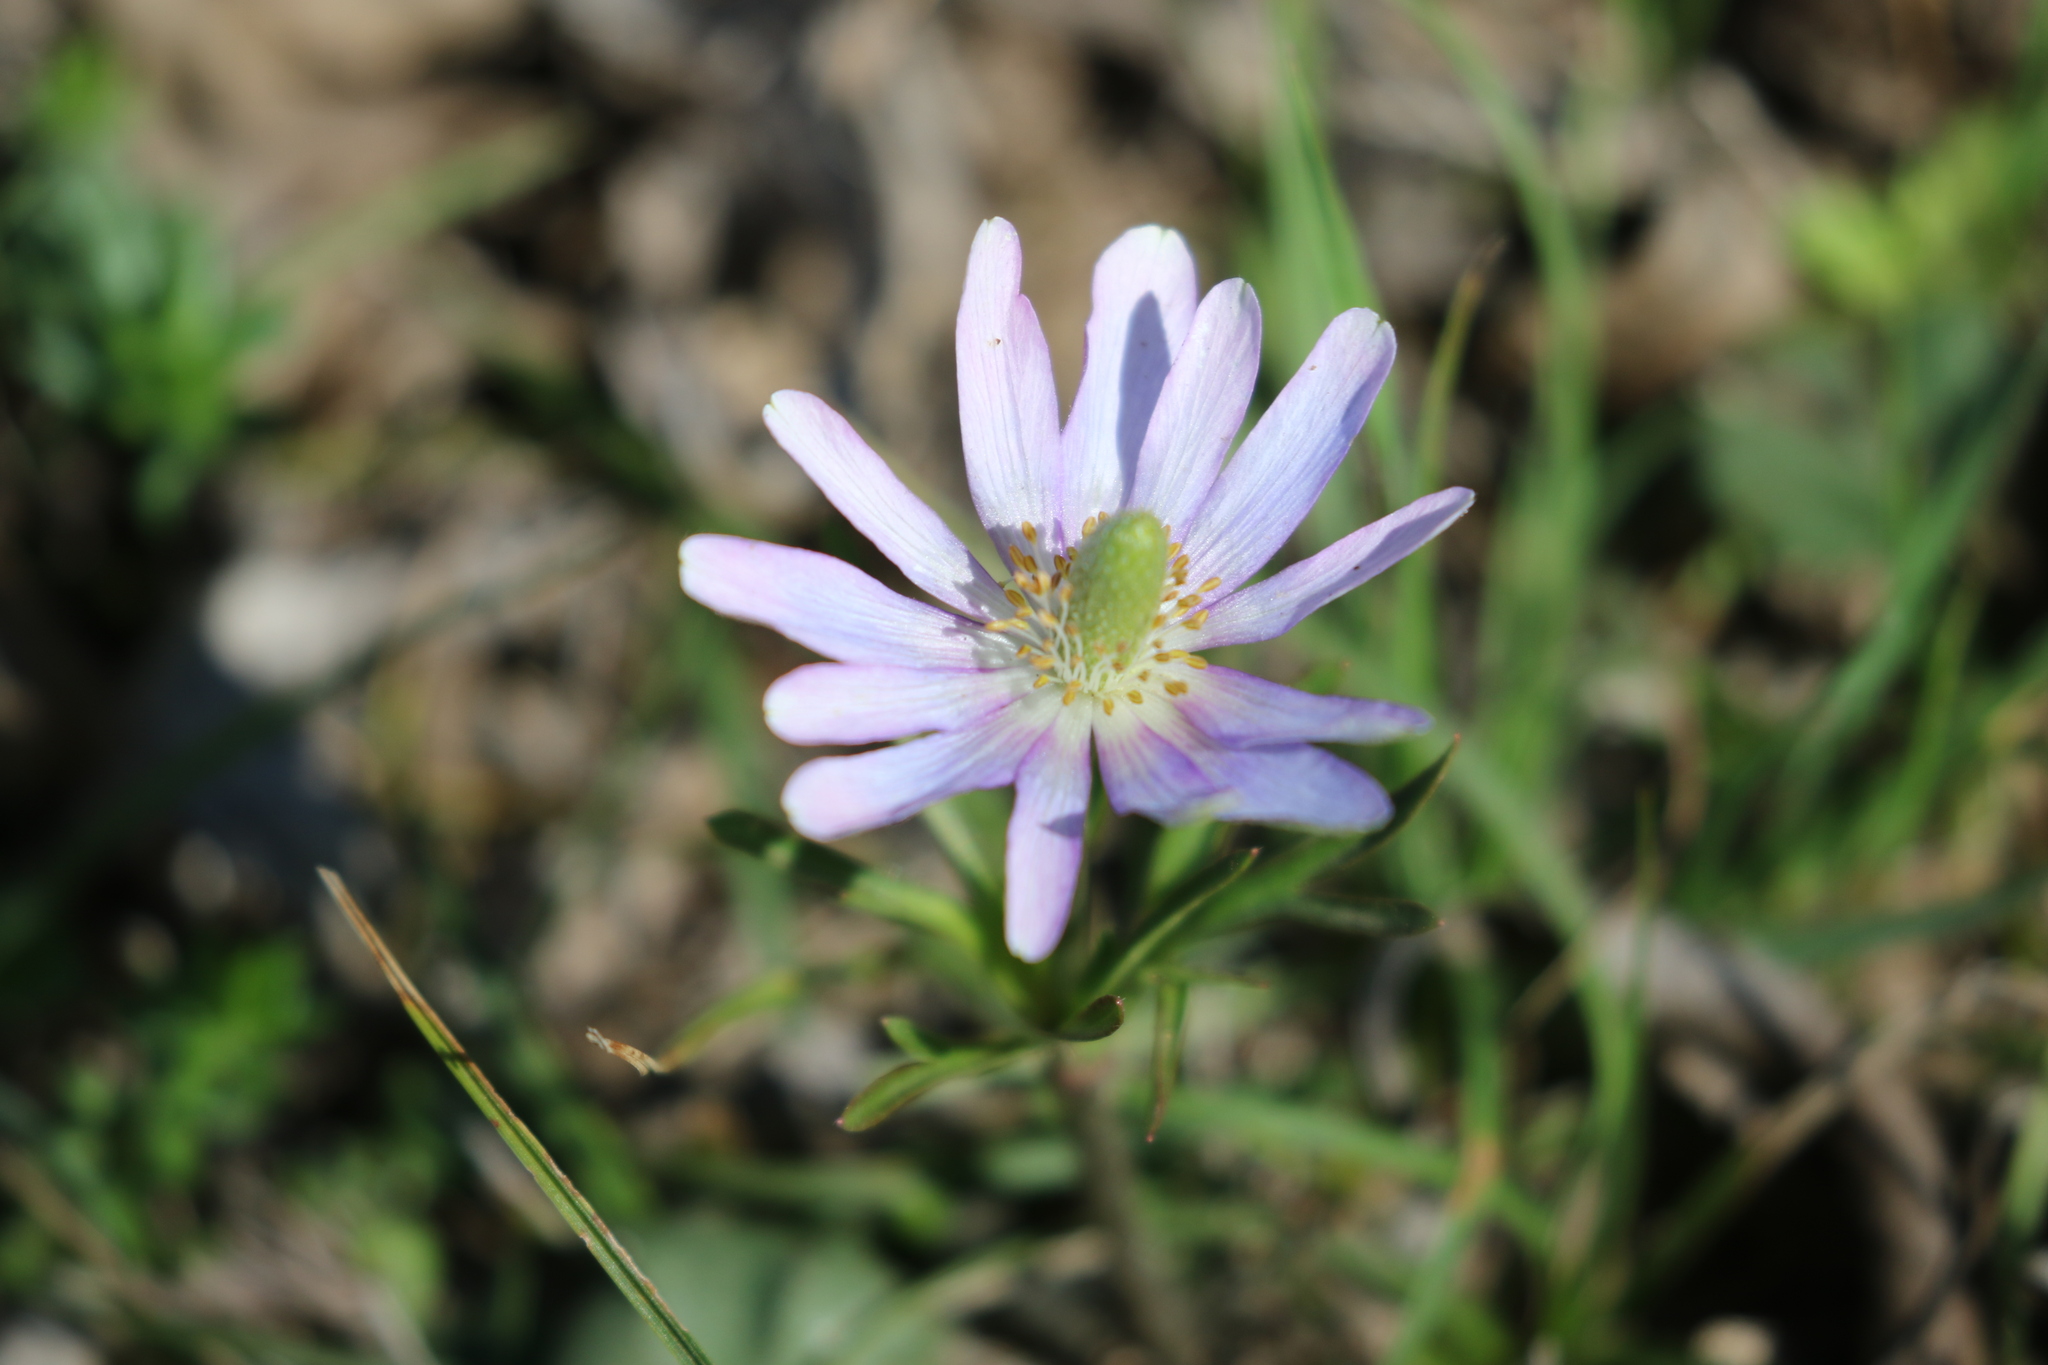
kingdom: Plantae
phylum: Tracheophyta
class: Magnoliopsida
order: Ranunculales
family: Ranunculaceae
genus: Anemone
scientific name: Anemone berlandieri
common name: Ten-petal anemone
